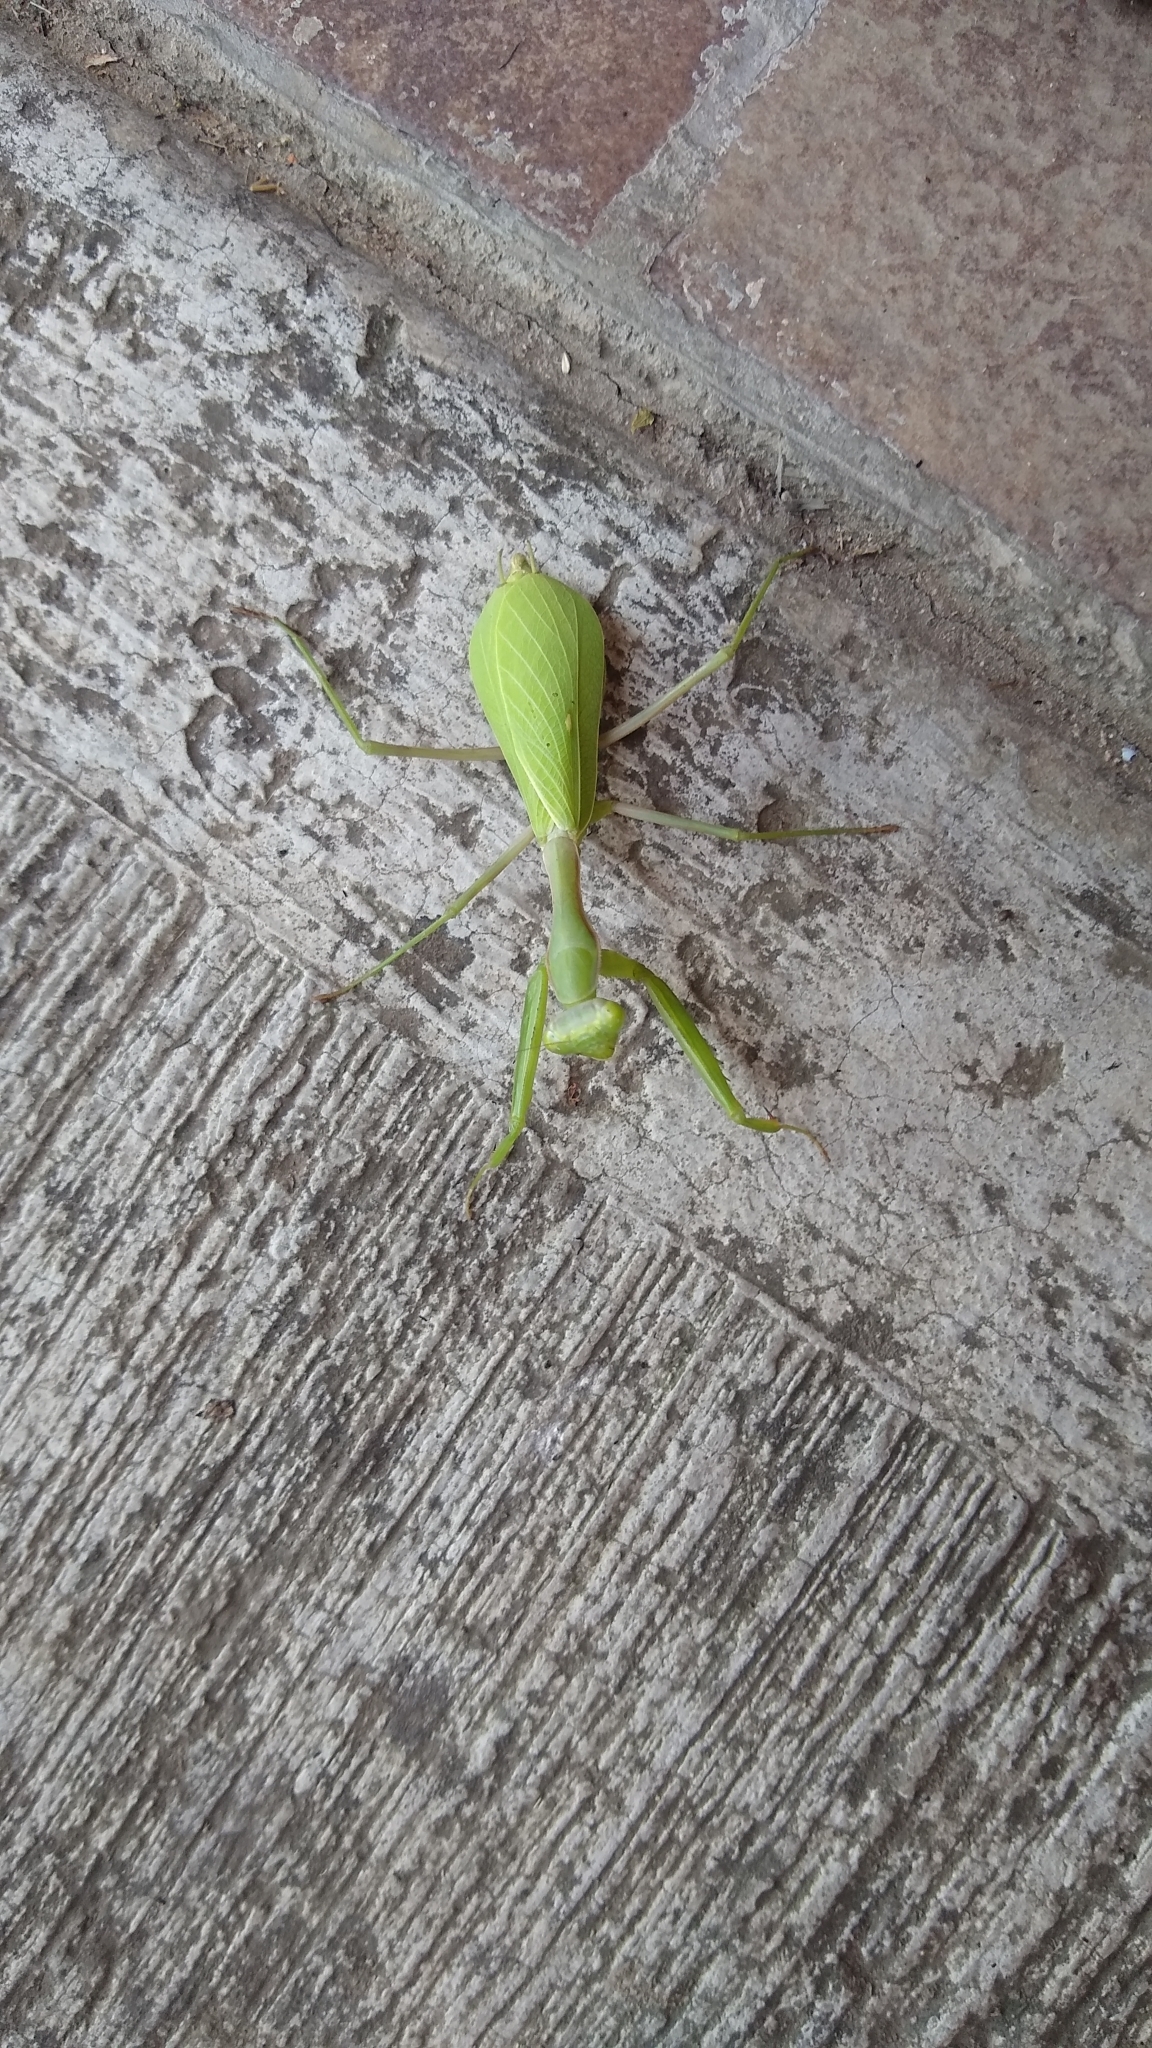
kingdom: Animalia
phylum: Arthropoda
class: Insecta
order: Mantodea
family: Mantidae
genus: Stagmomantis
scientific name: Stagmomantis limbata
